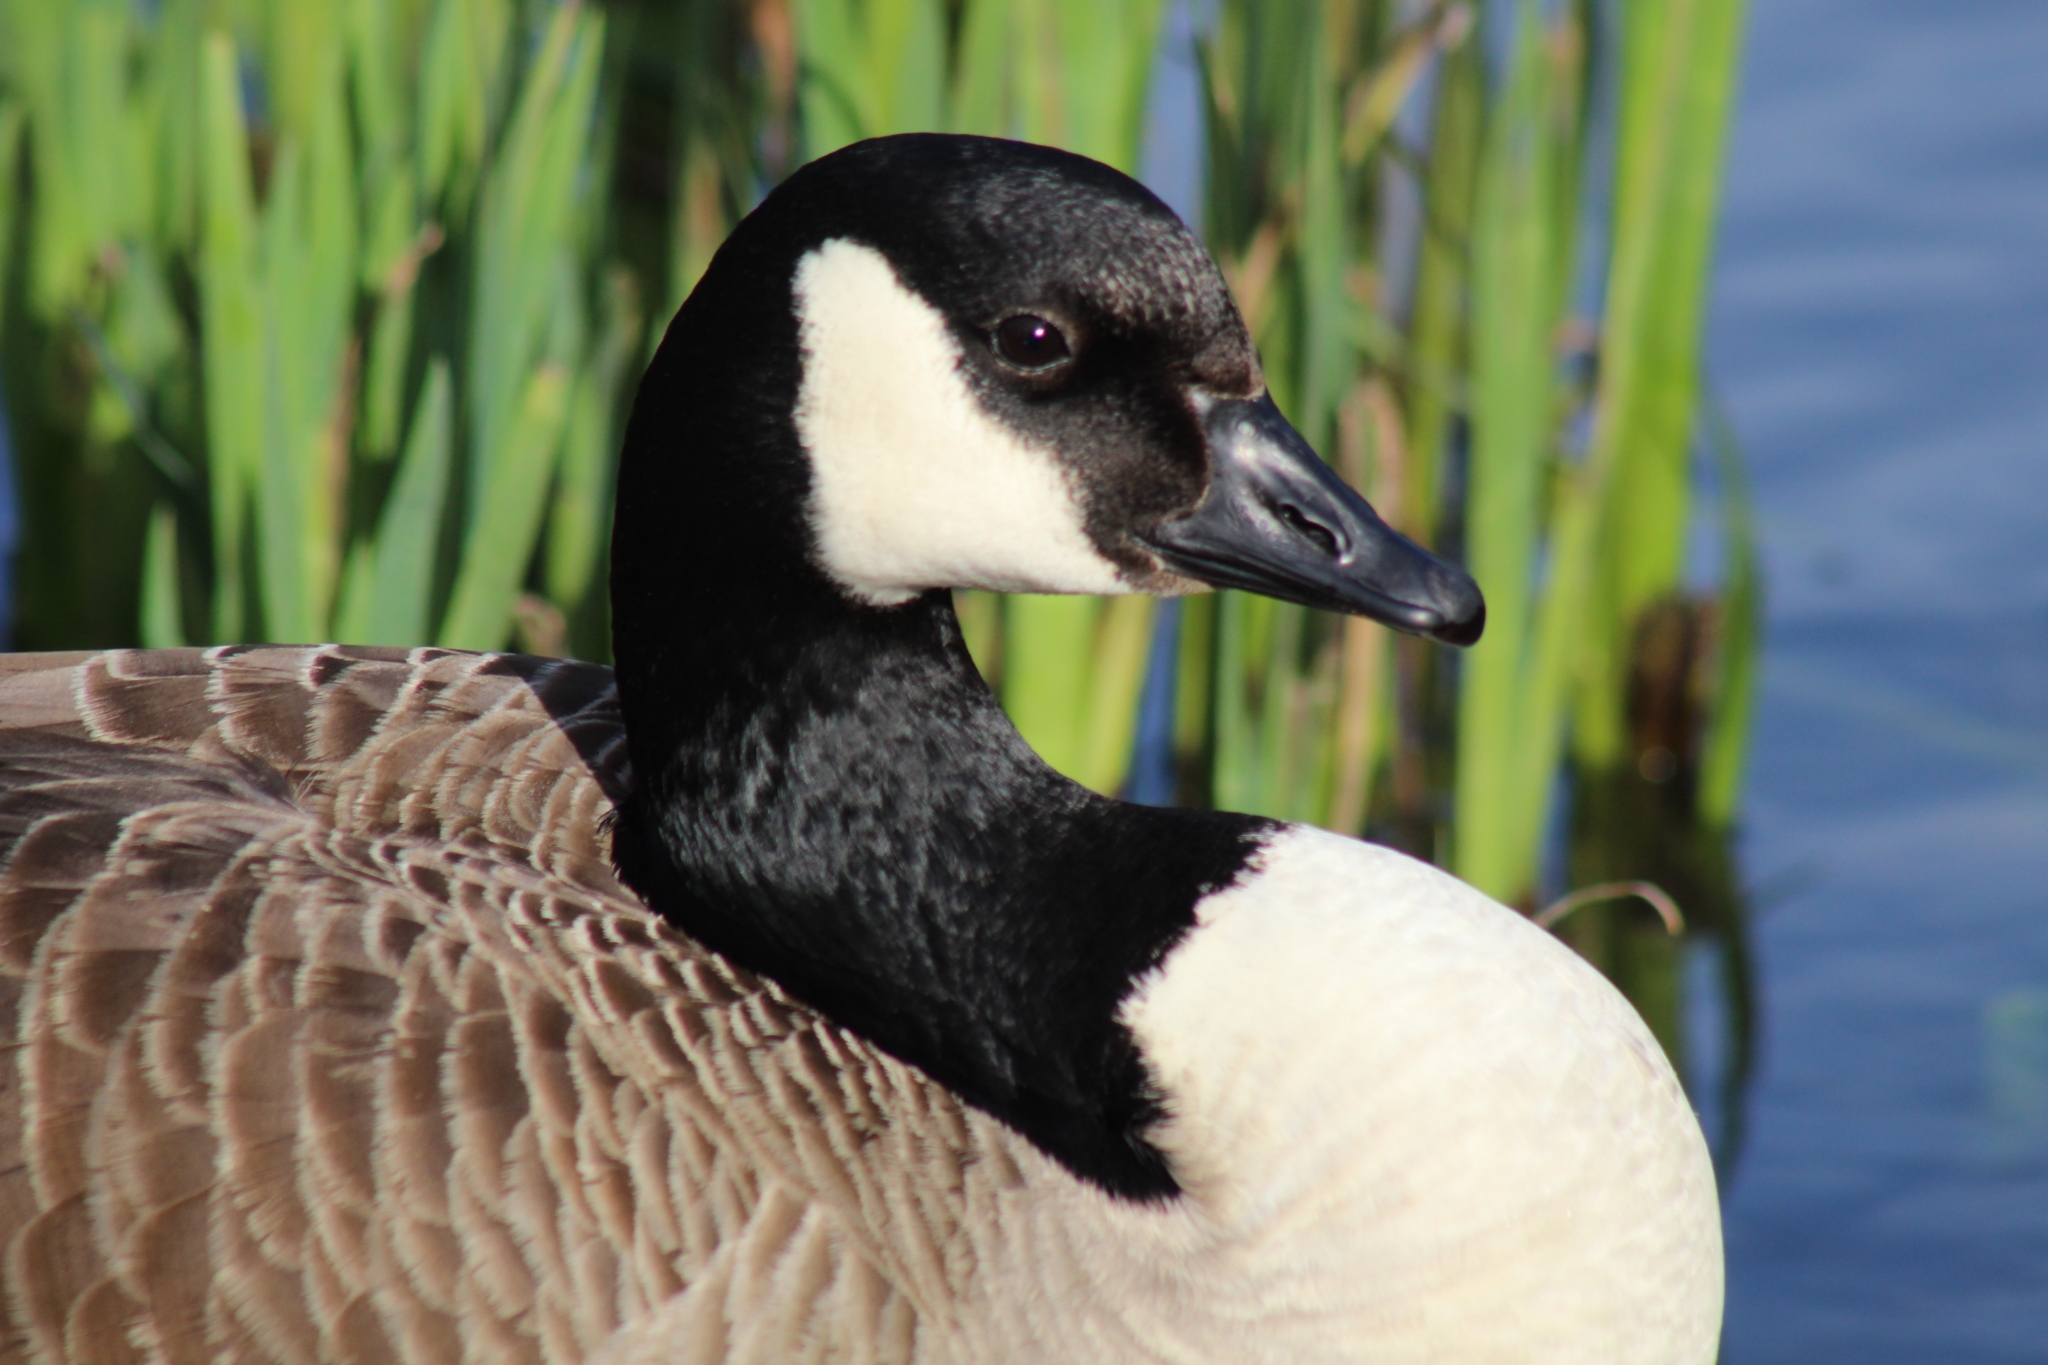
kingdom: Animalia
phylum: Chordata
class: Aves
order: Anseriformes
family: Anatidae
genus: Branta
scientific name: Branta canadensis
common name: Canada goose
